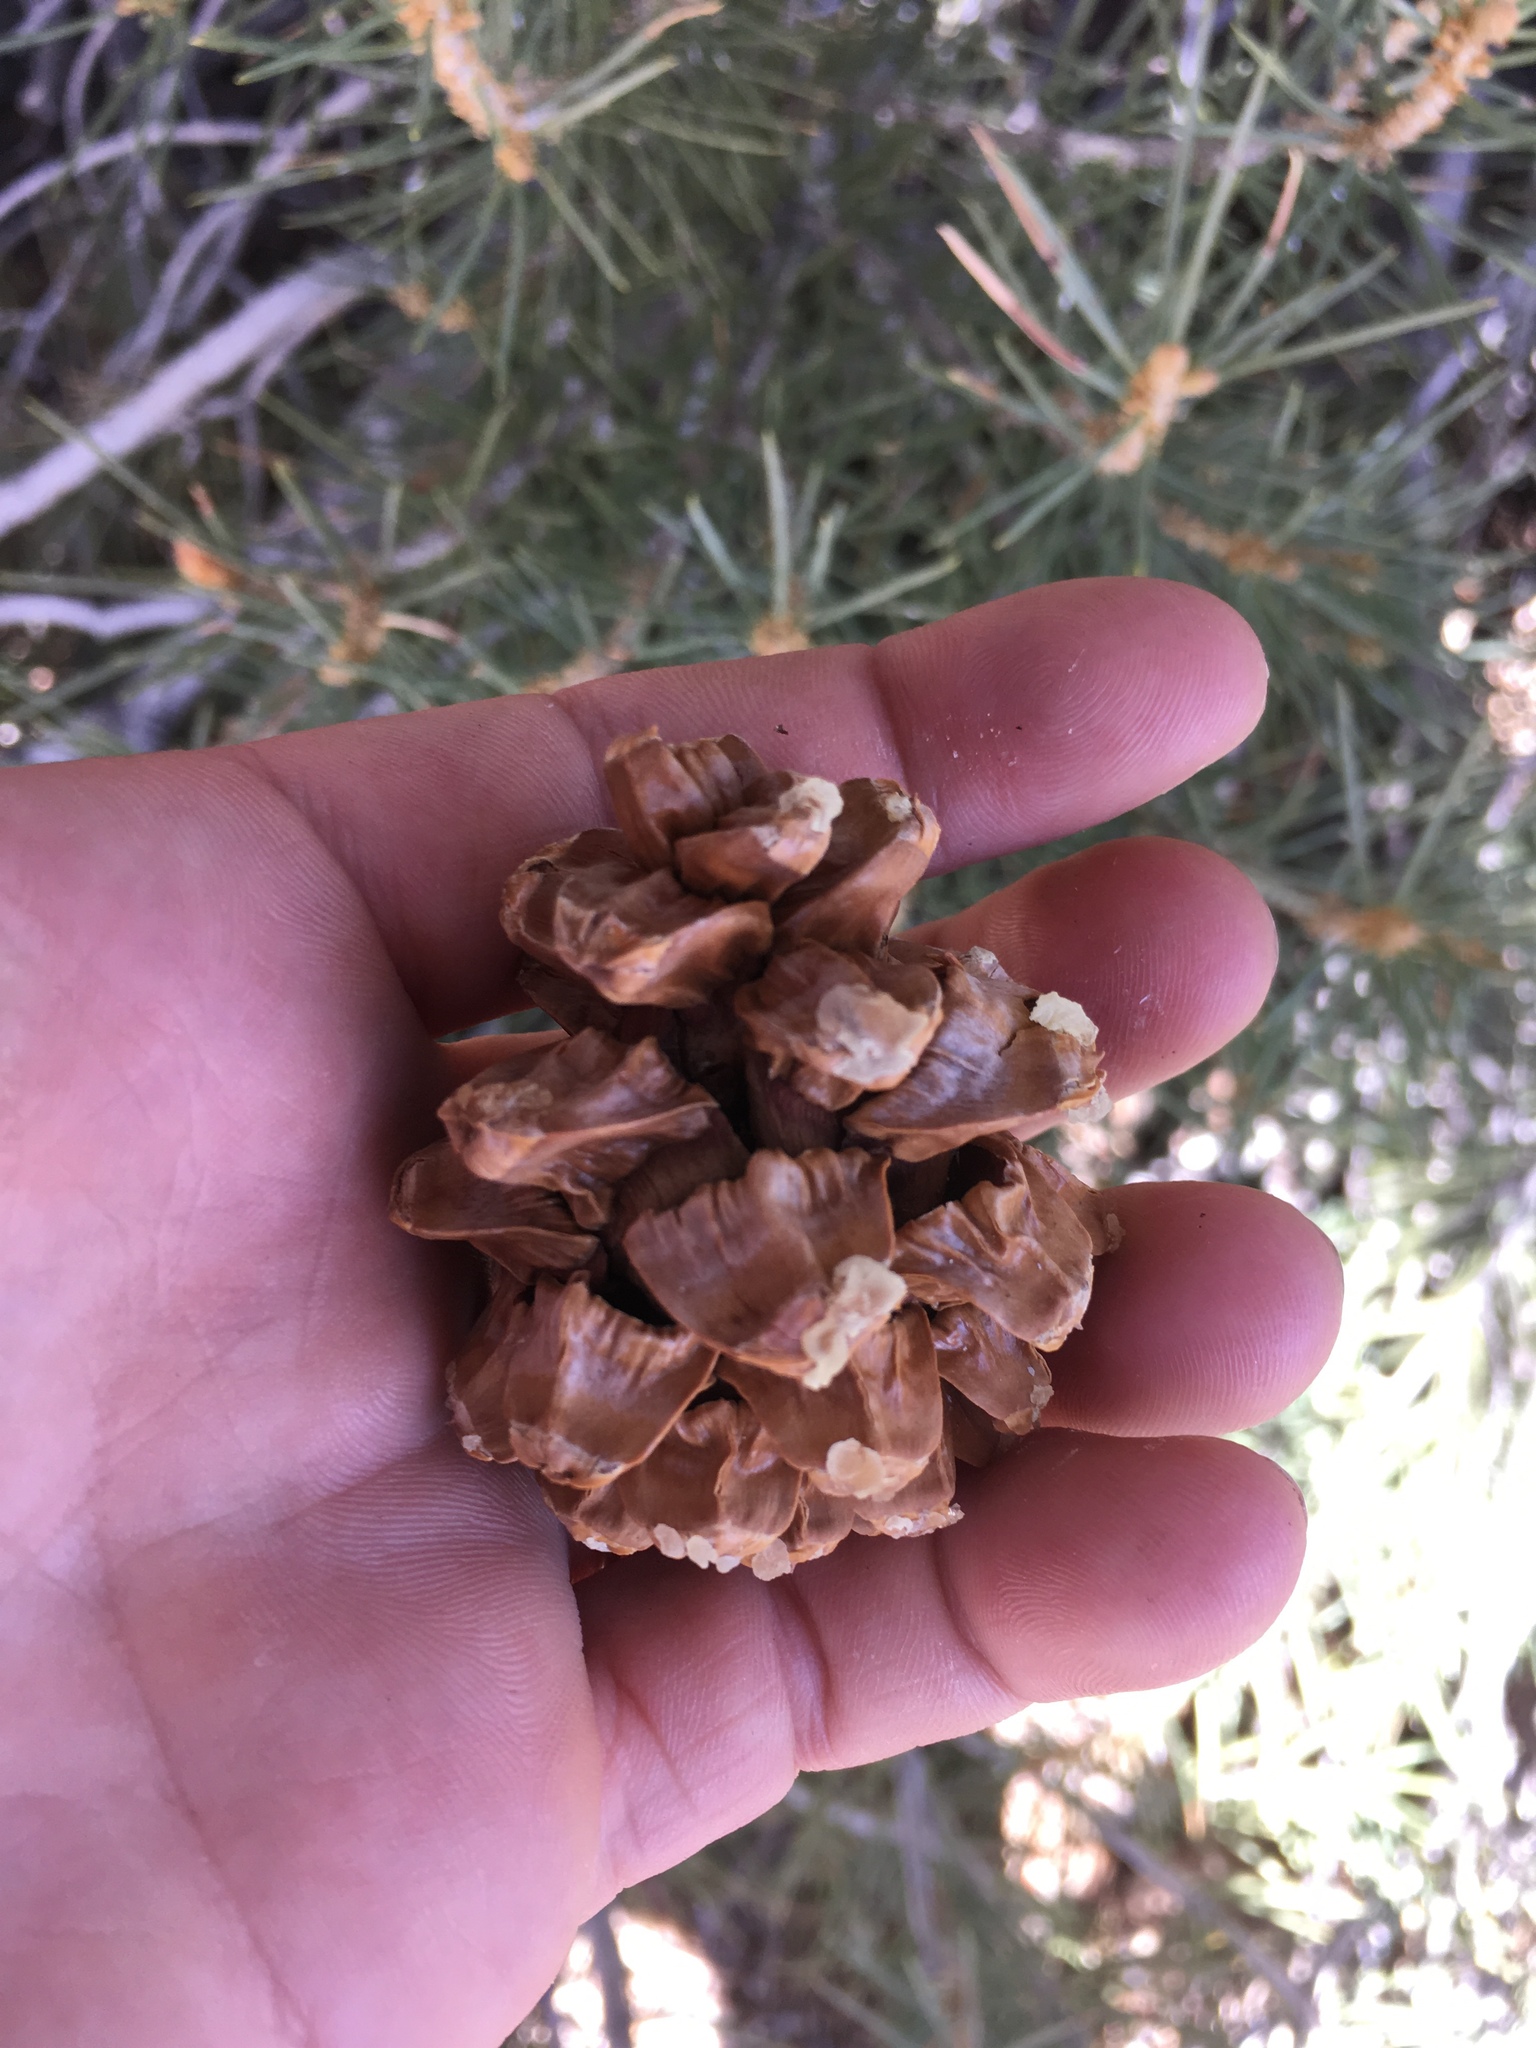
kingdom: Plantae
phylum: Tracheophyta
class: Pinopsida
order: Pinales
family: Pinaceae
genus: Pinus
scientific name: Pinus monophylla
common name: One-leaved nut pine
